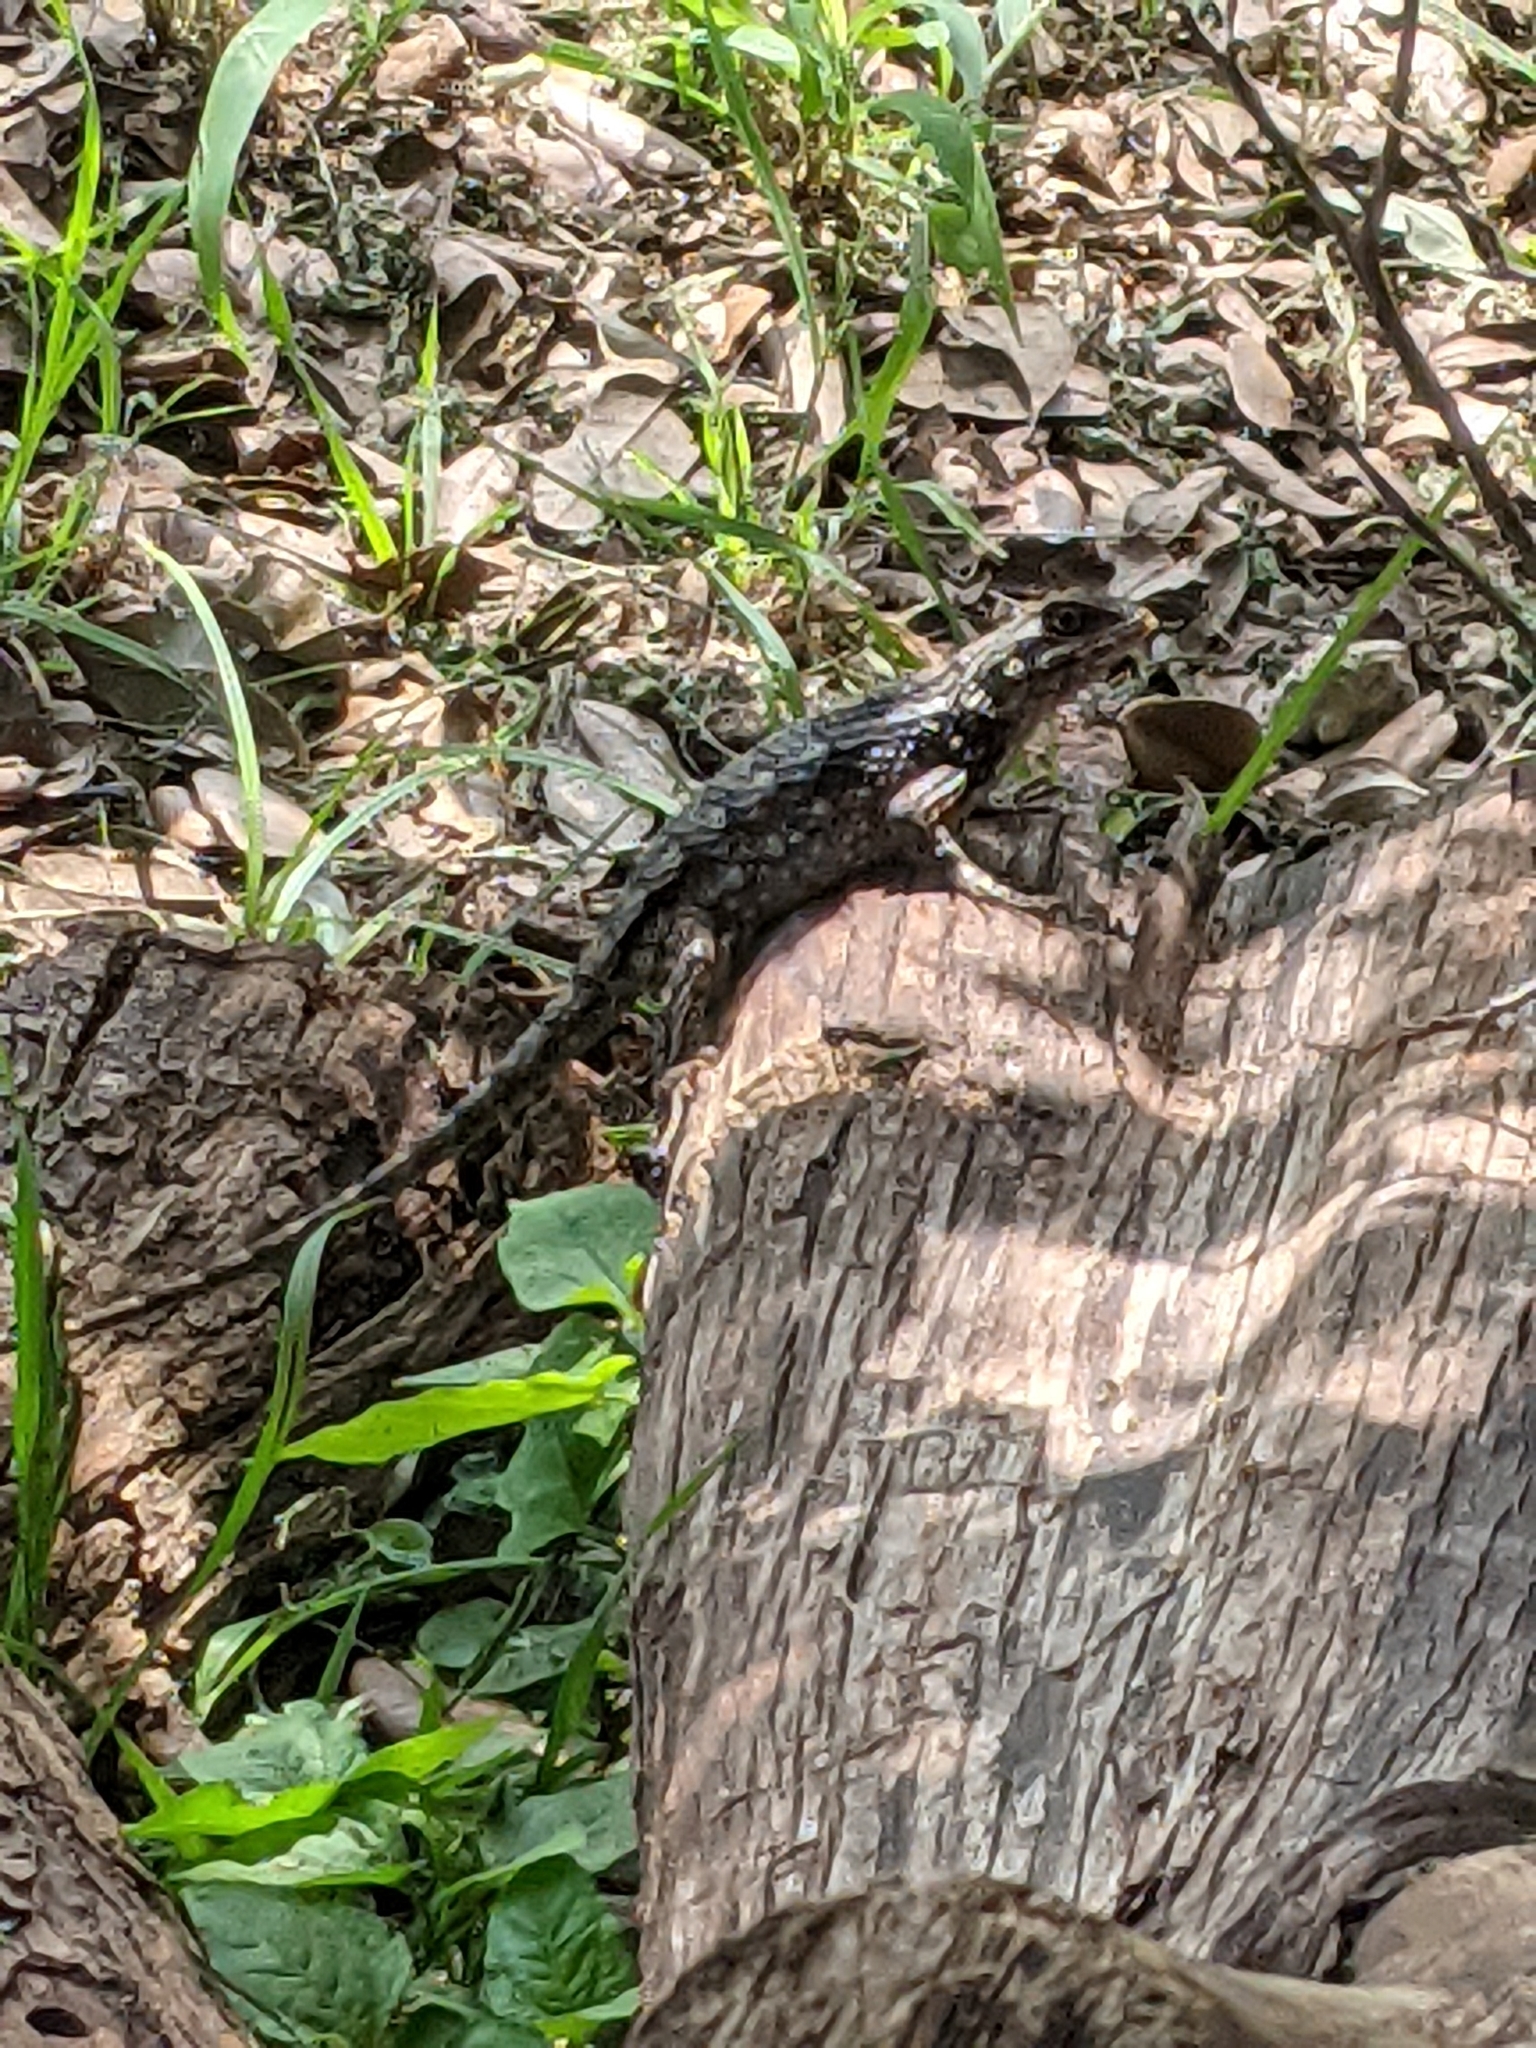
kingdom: Animalia
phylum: Chordata
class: Squamata
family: Phrynosomatidae
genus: Sceloporus
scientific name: Sceloporus olivaceus
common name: Texas spiny lizard
